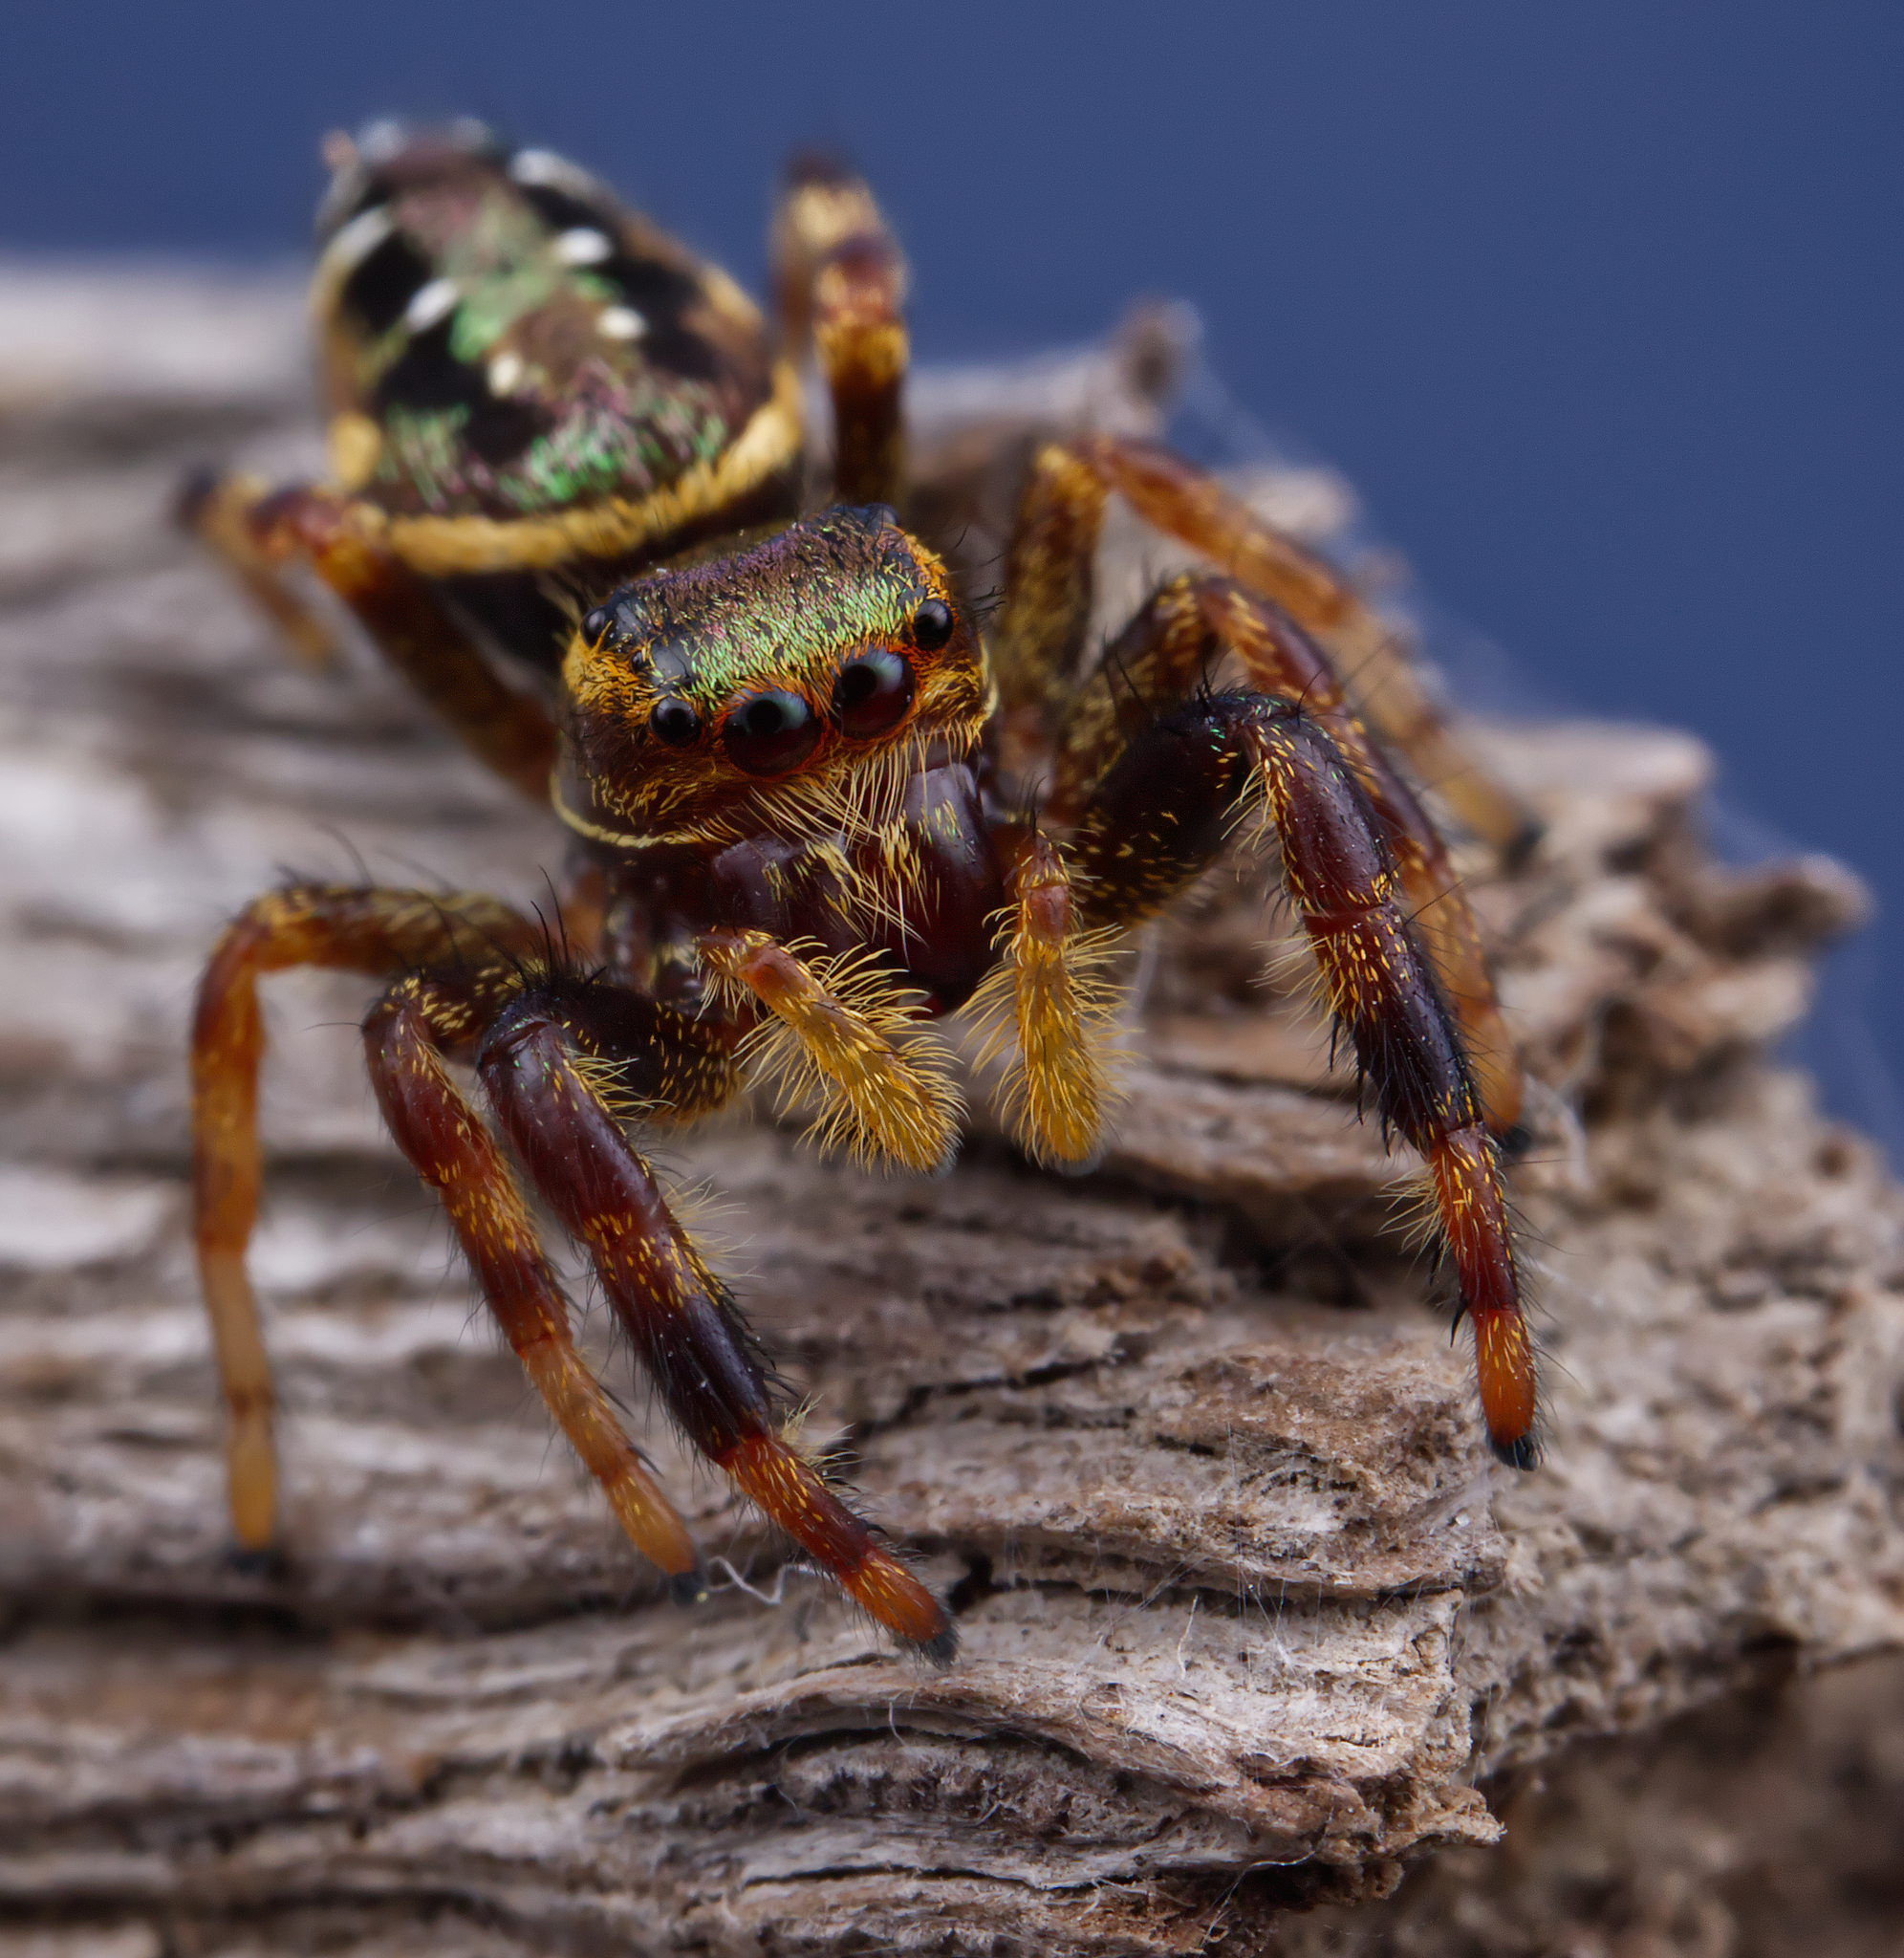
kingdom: Animalia
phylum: Arthropoda
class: Arachnida
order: Araneae
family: Salticidae
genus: Paraphidippus
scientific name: Paraphidippus aurantius
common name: Jumping spiders
